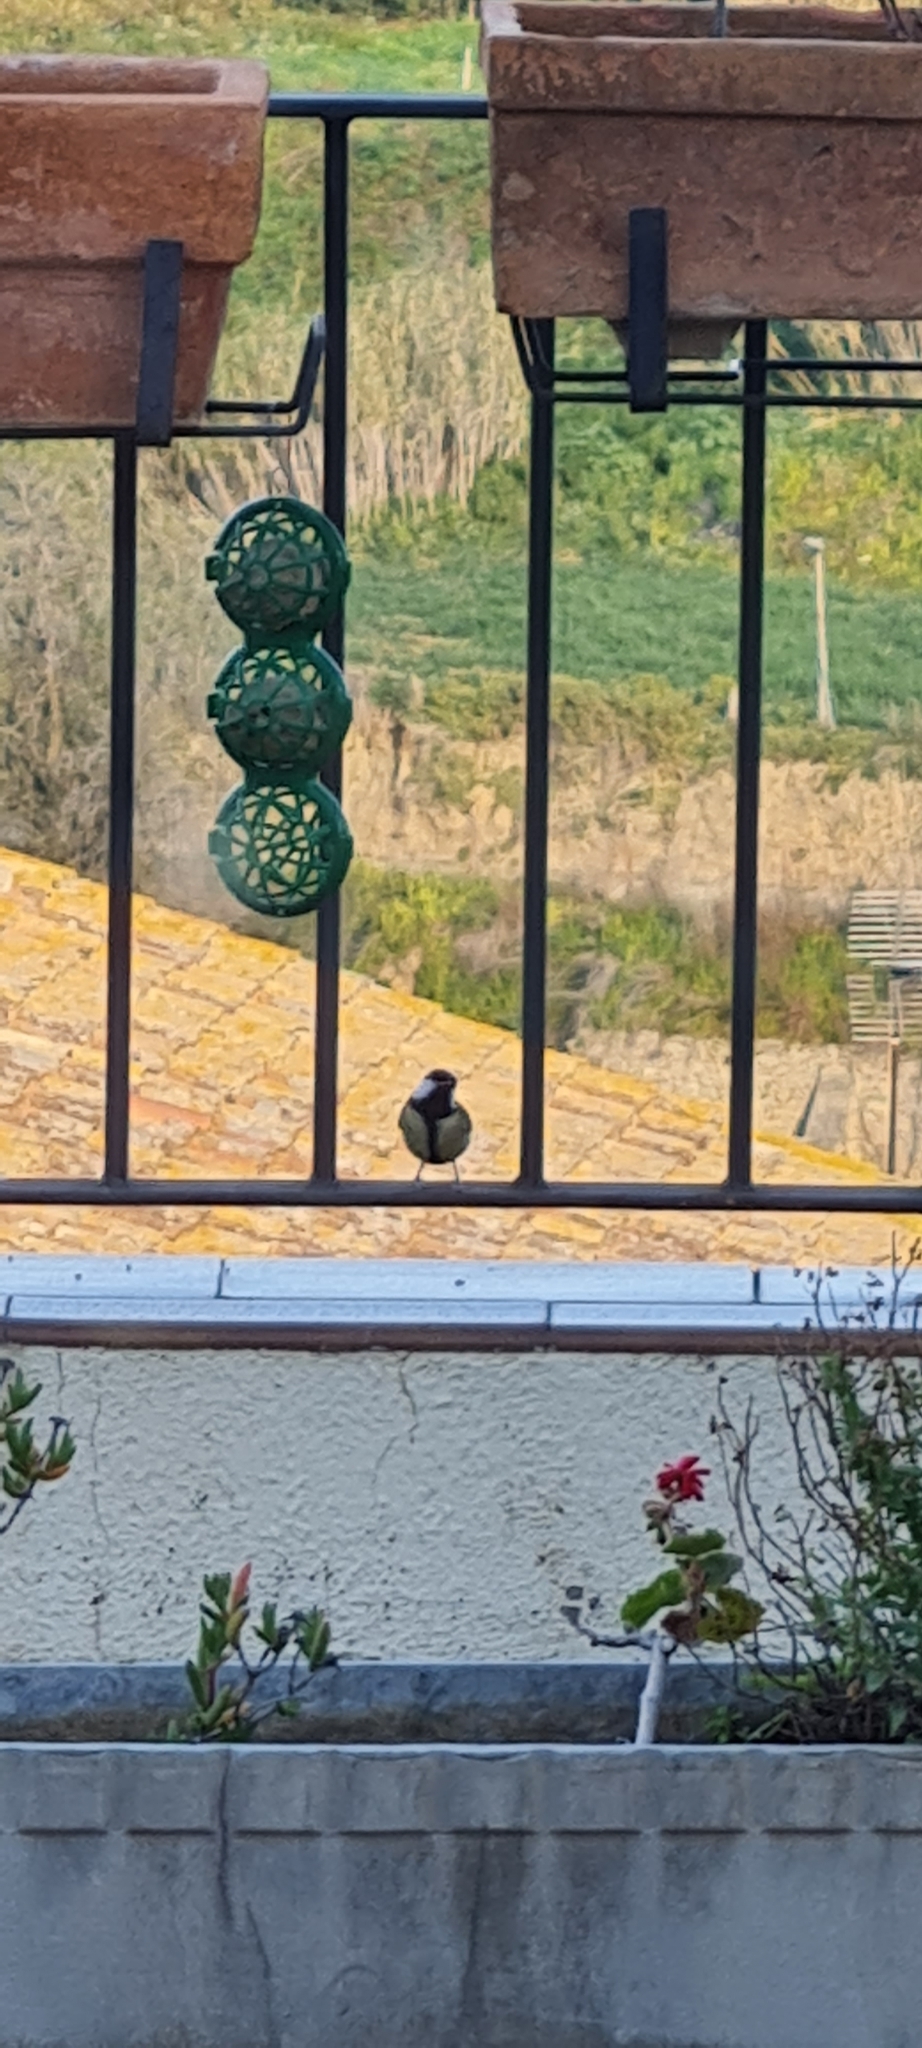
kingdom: Animalia
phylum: Chordata
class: Aves
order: Passeriformes
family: Paridae
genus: Parus
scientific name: Parus major
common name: Great tit
